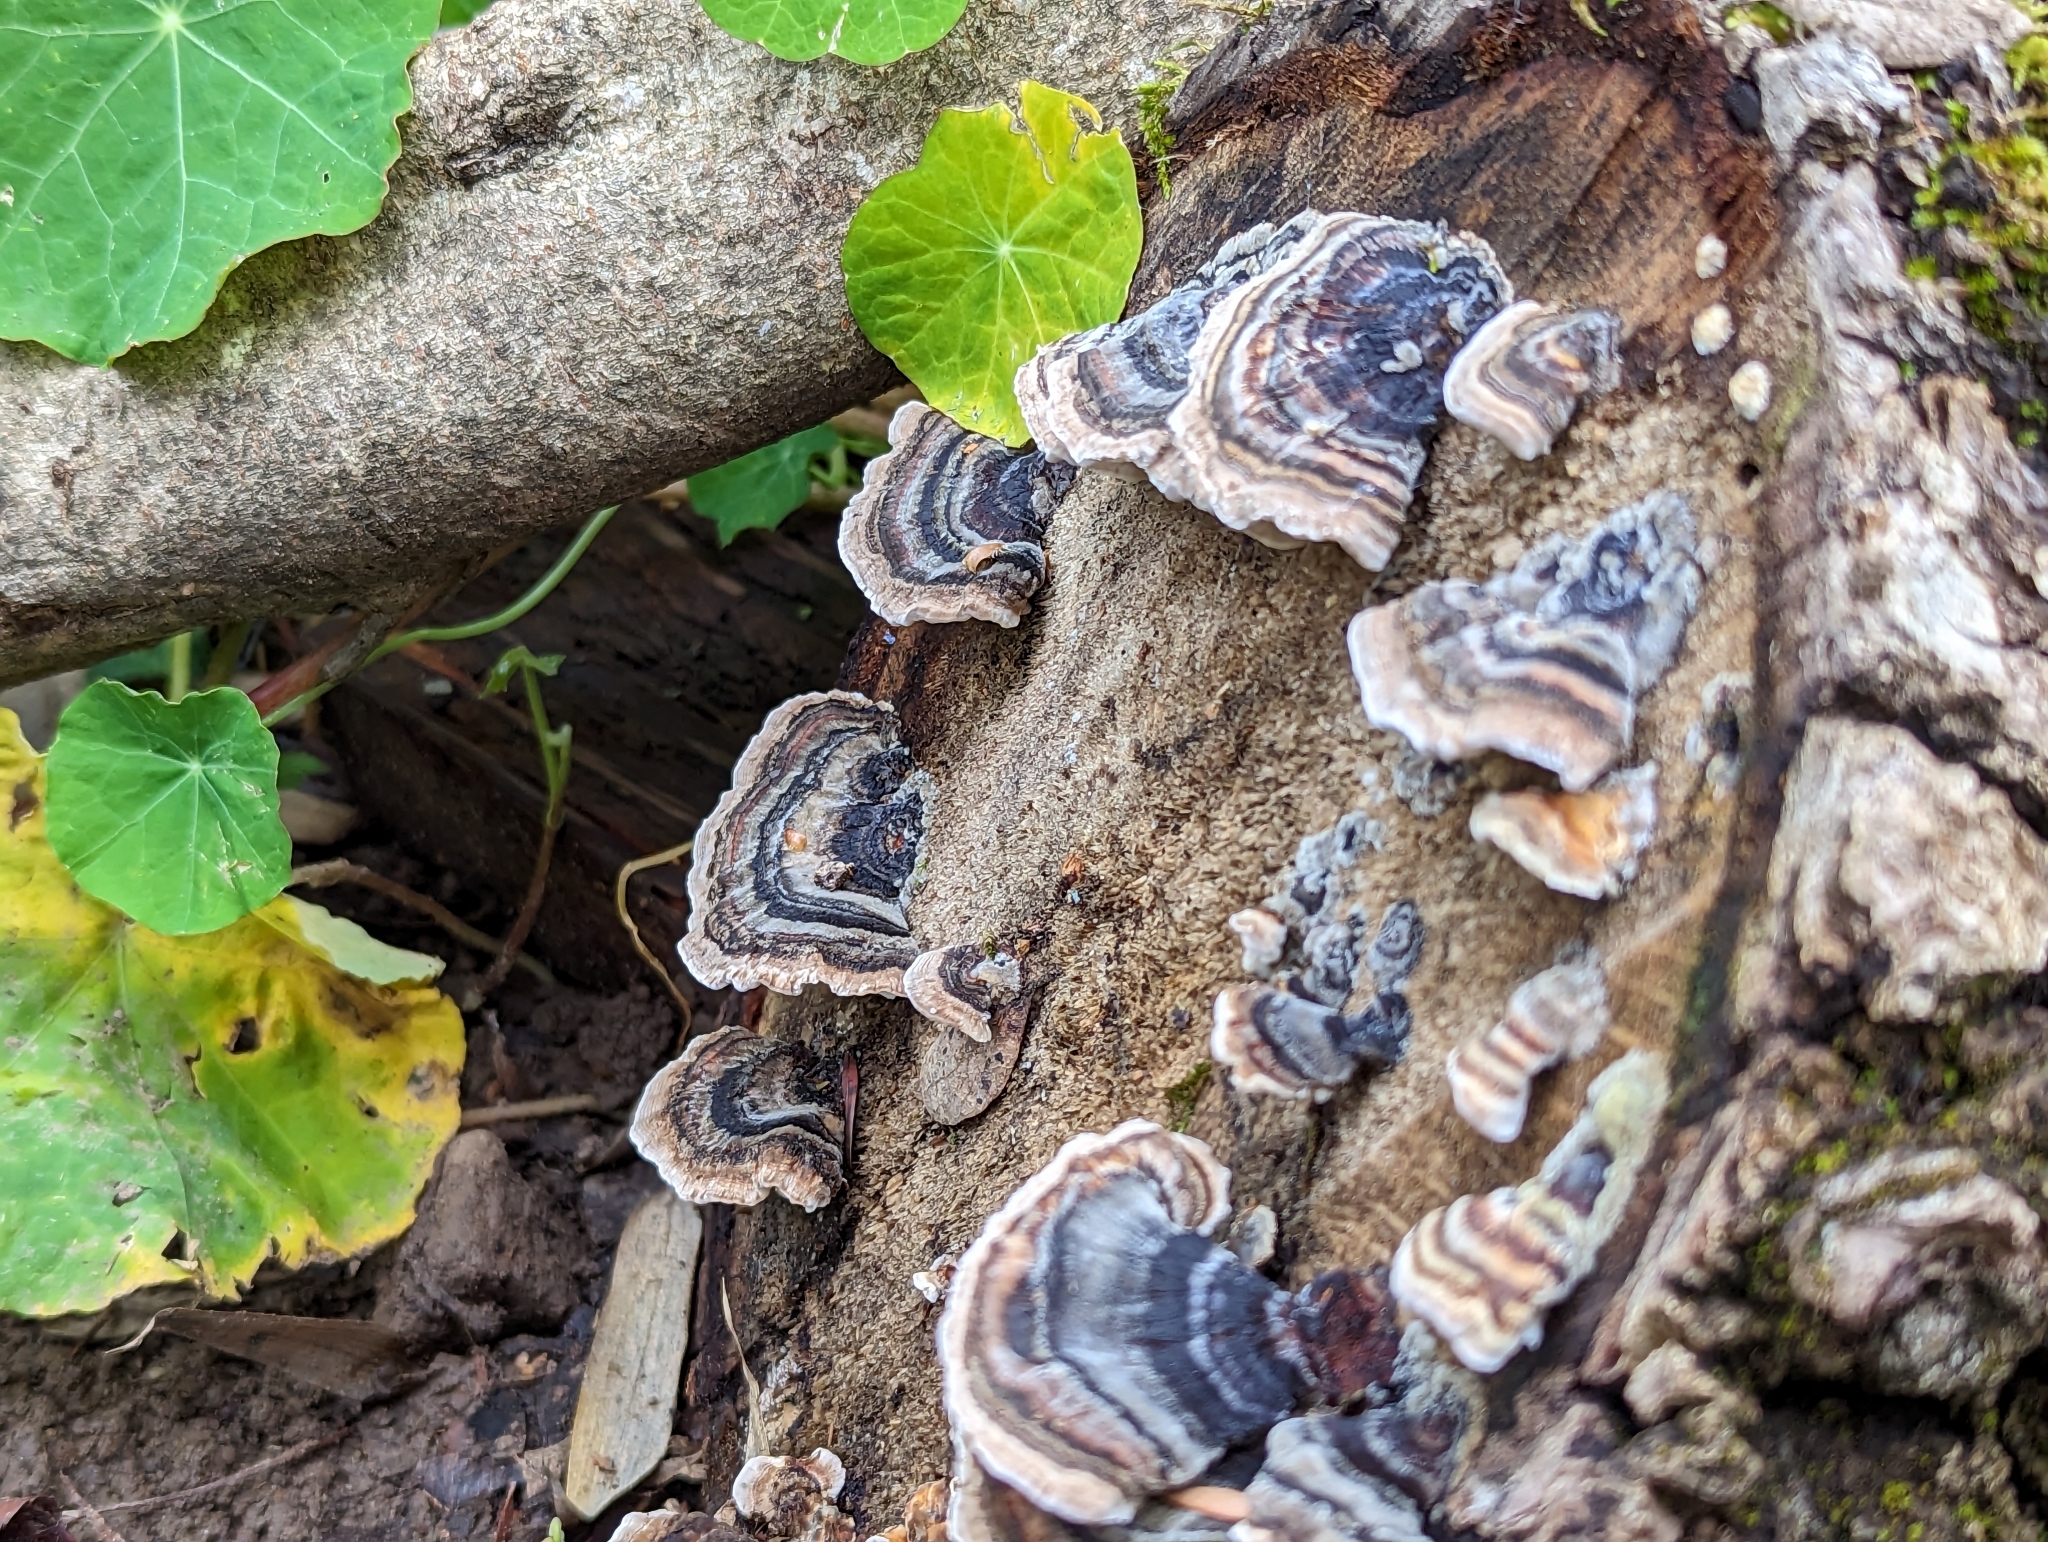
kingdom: Fungi
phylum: Basidiomycota
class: Agaricomycetes
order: Polyporales
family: Polyporaceae
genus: Trametes
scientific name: Trametes versicolor
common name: Turkeytail
